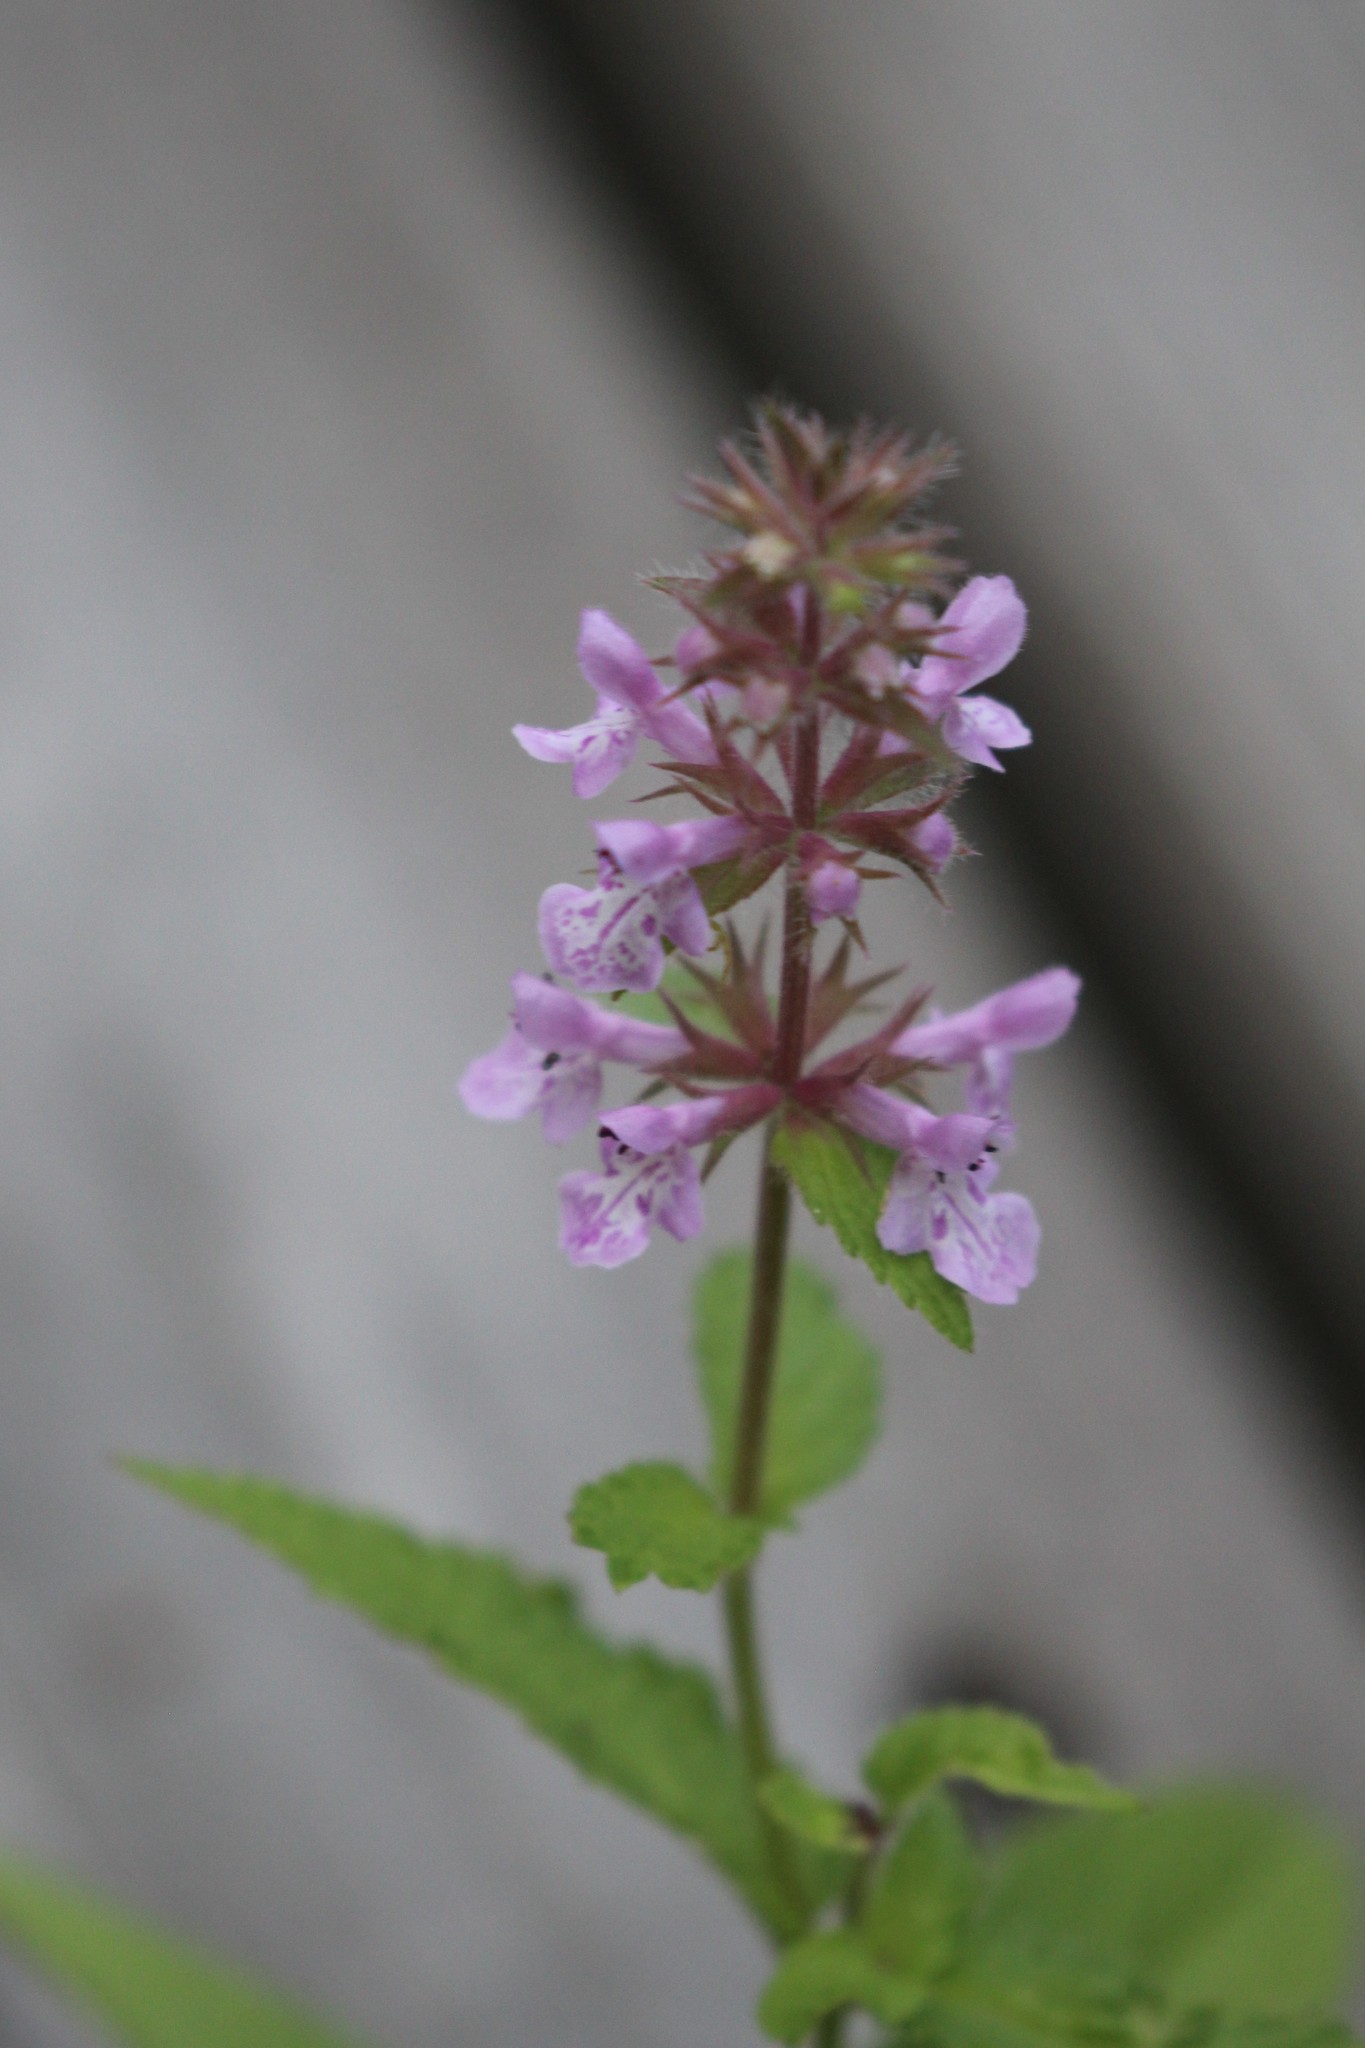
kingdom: Plantae
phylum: Tracheophyta
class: Magnoliopsida
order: Lamiales
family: Lamiaceae
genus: Stachys
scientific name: Stachys palustris
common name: Marsh woundwort
